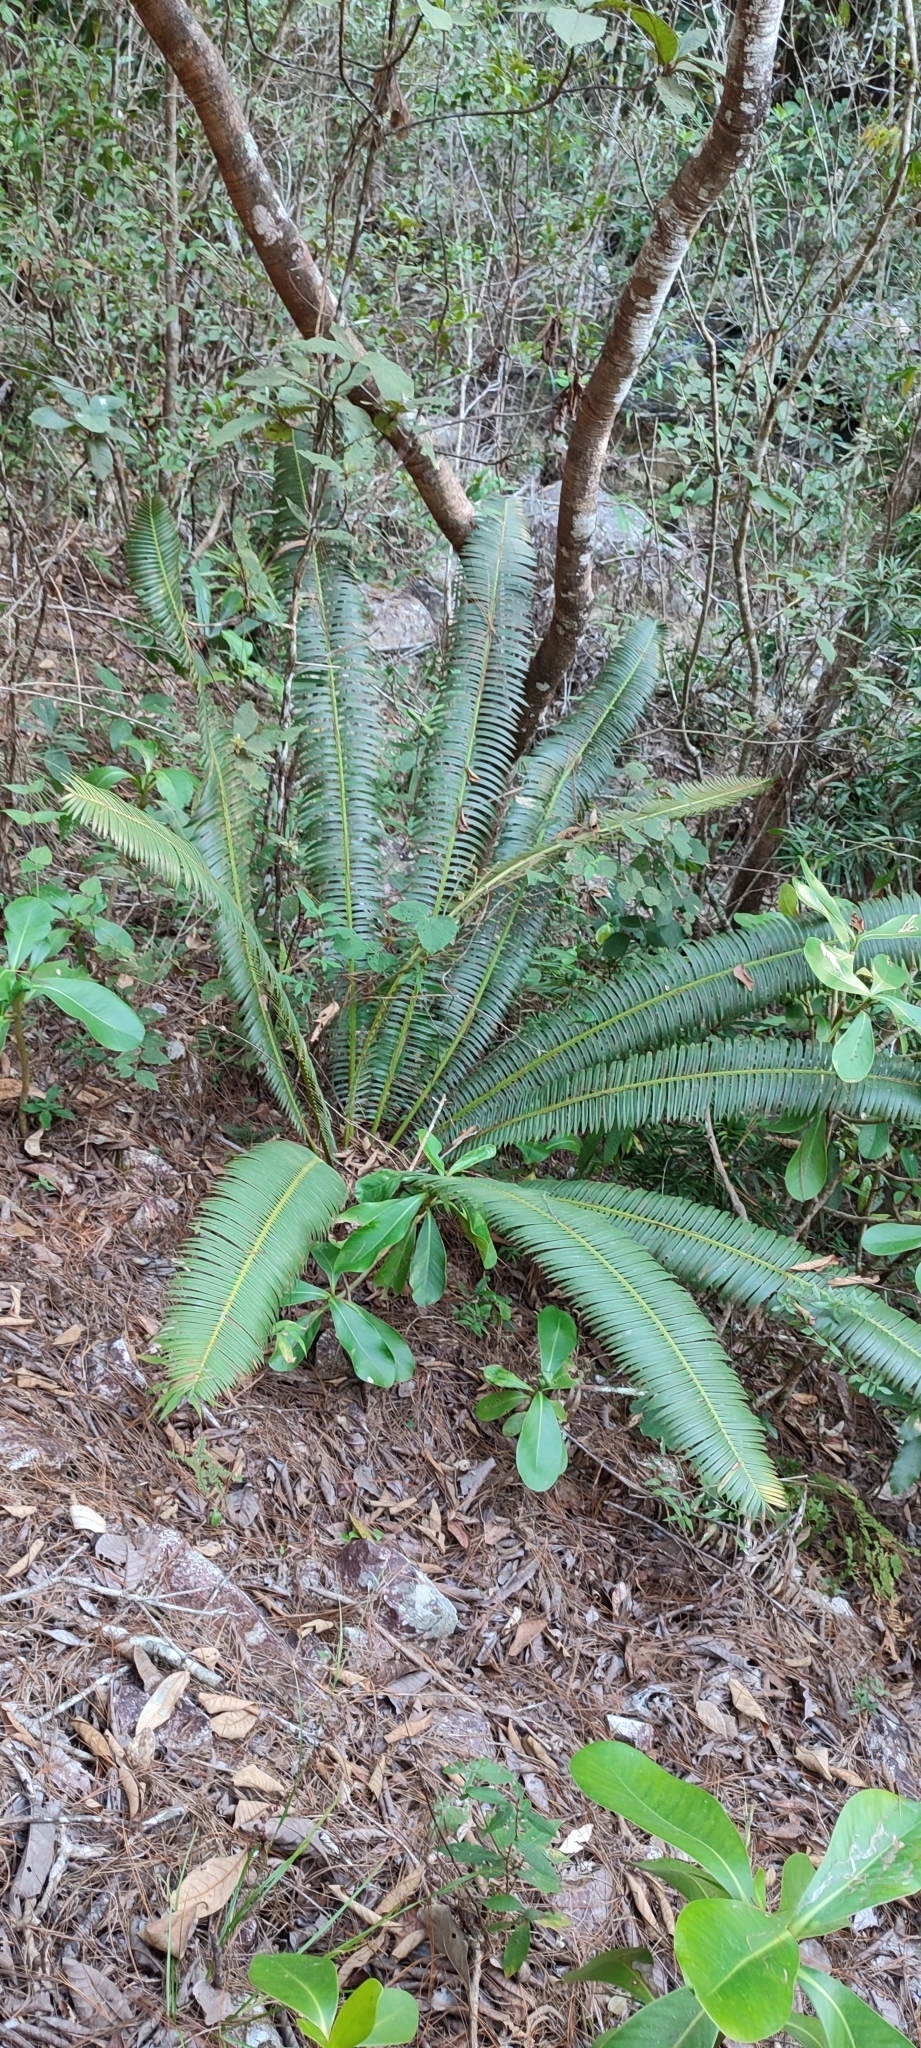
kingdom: Plantae
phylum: Tracheophyta
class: Cycadopsida
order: Cycadales
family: Zamiaceae
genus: Dioon
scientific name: Dioon tomasellii
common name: Palmita
